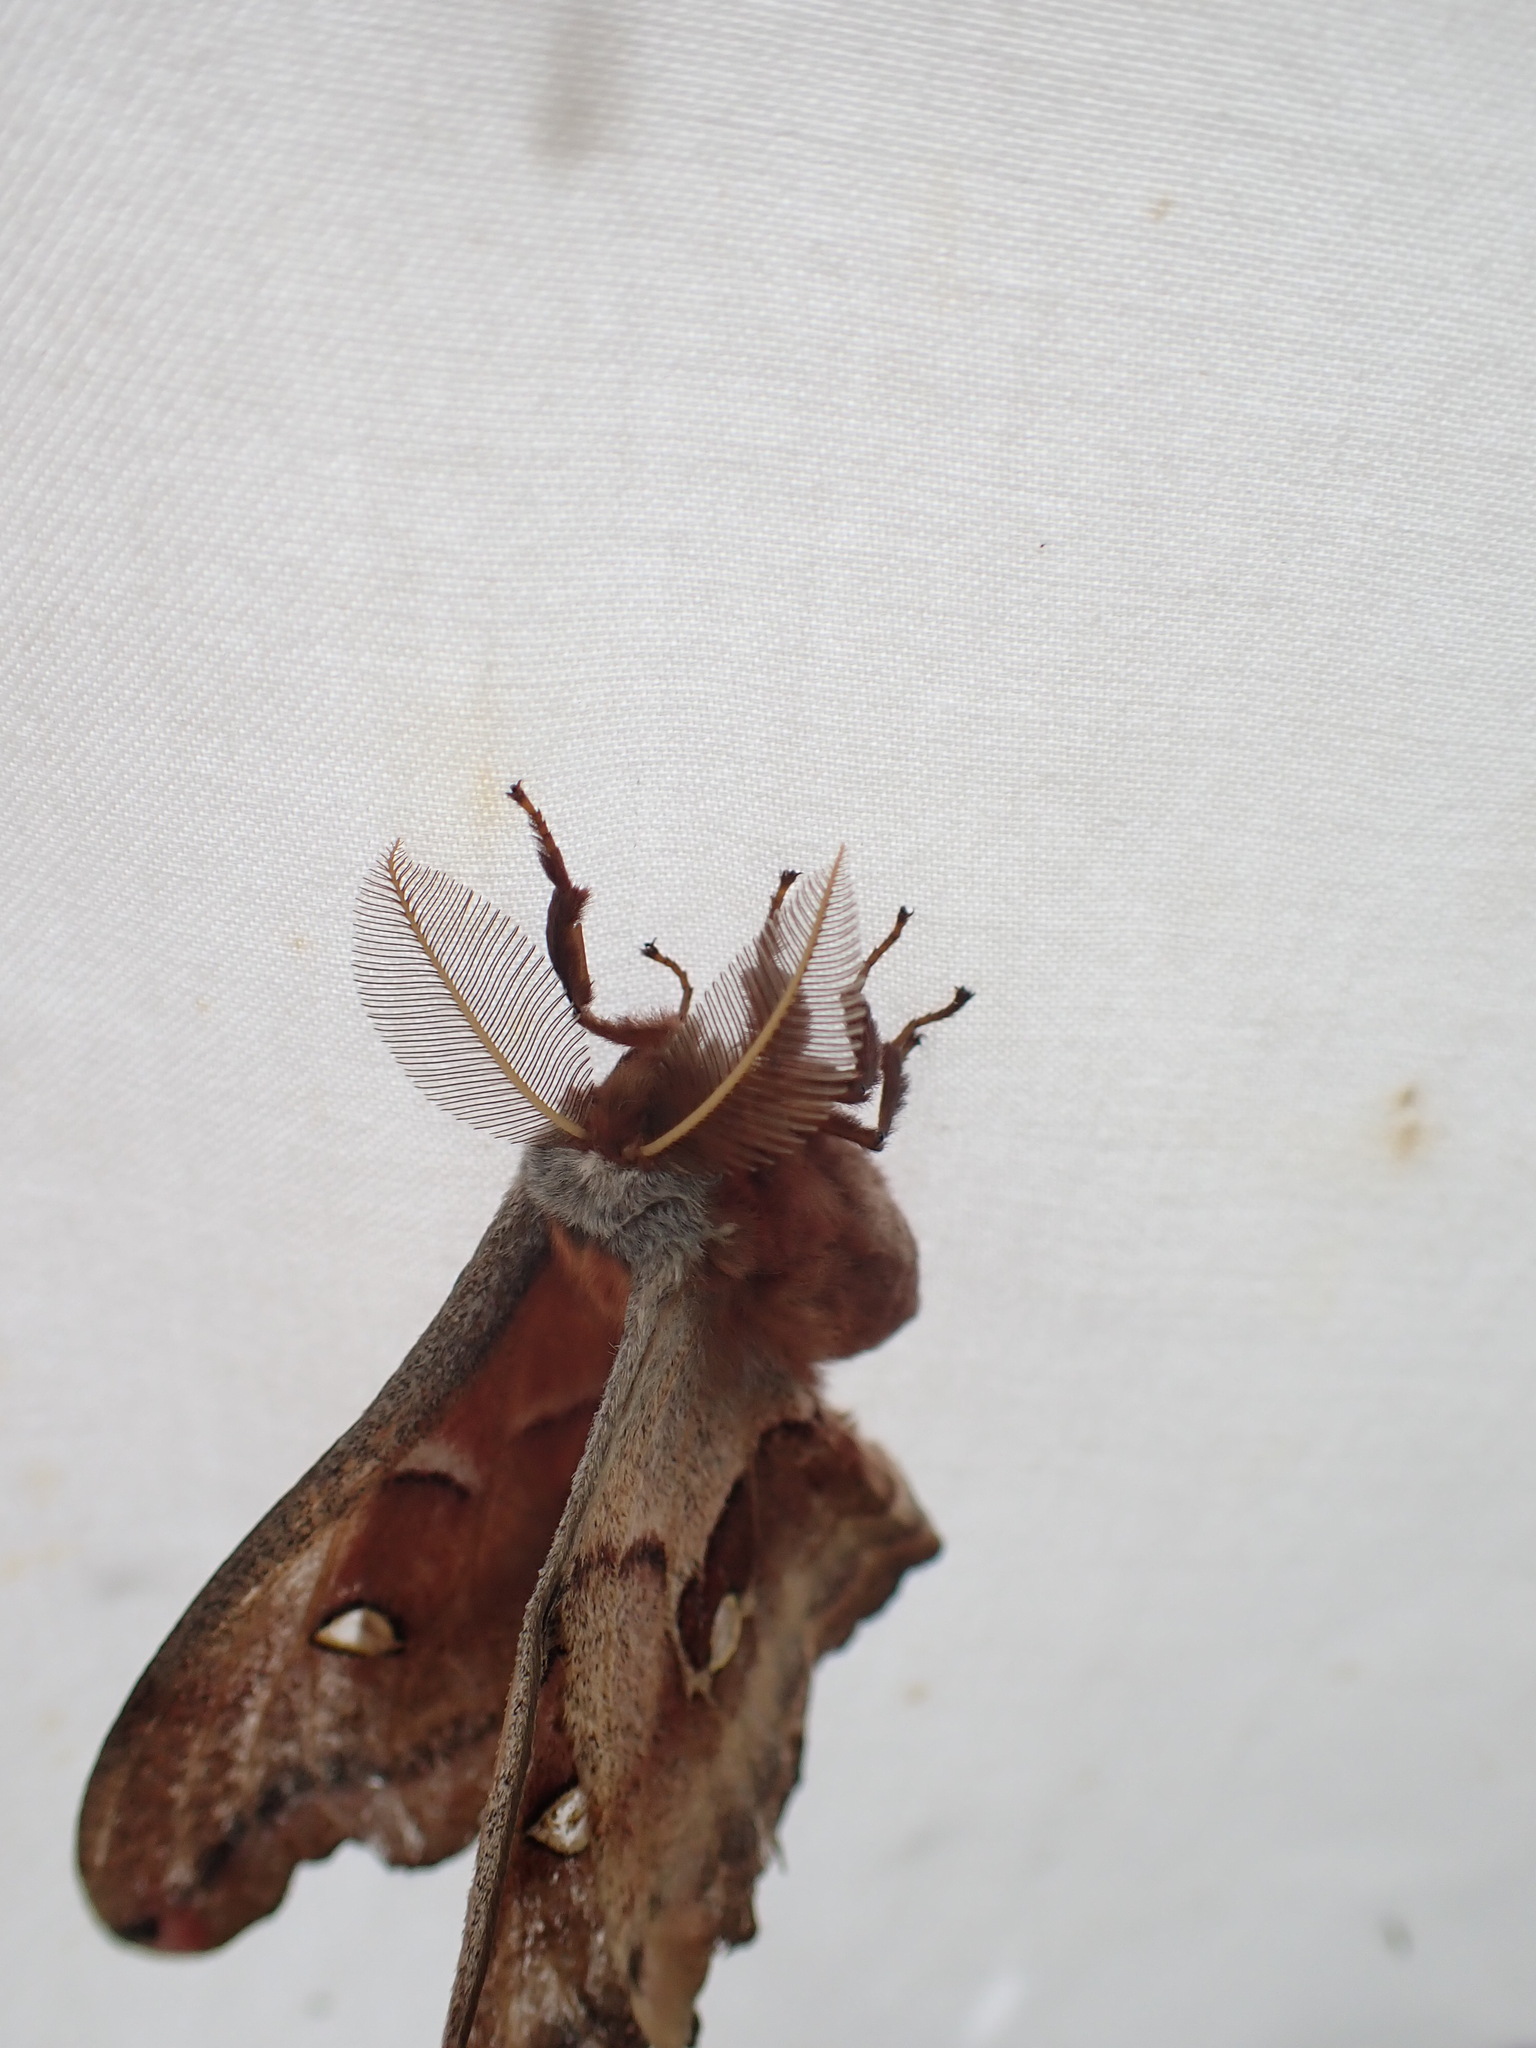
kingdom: Animalia
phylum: Arthropoda
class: Insecta
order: Lepidoptera
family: Saturniidae
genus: Antheraea
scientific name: Antheraea polyphemus
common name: Polyphemus moth
